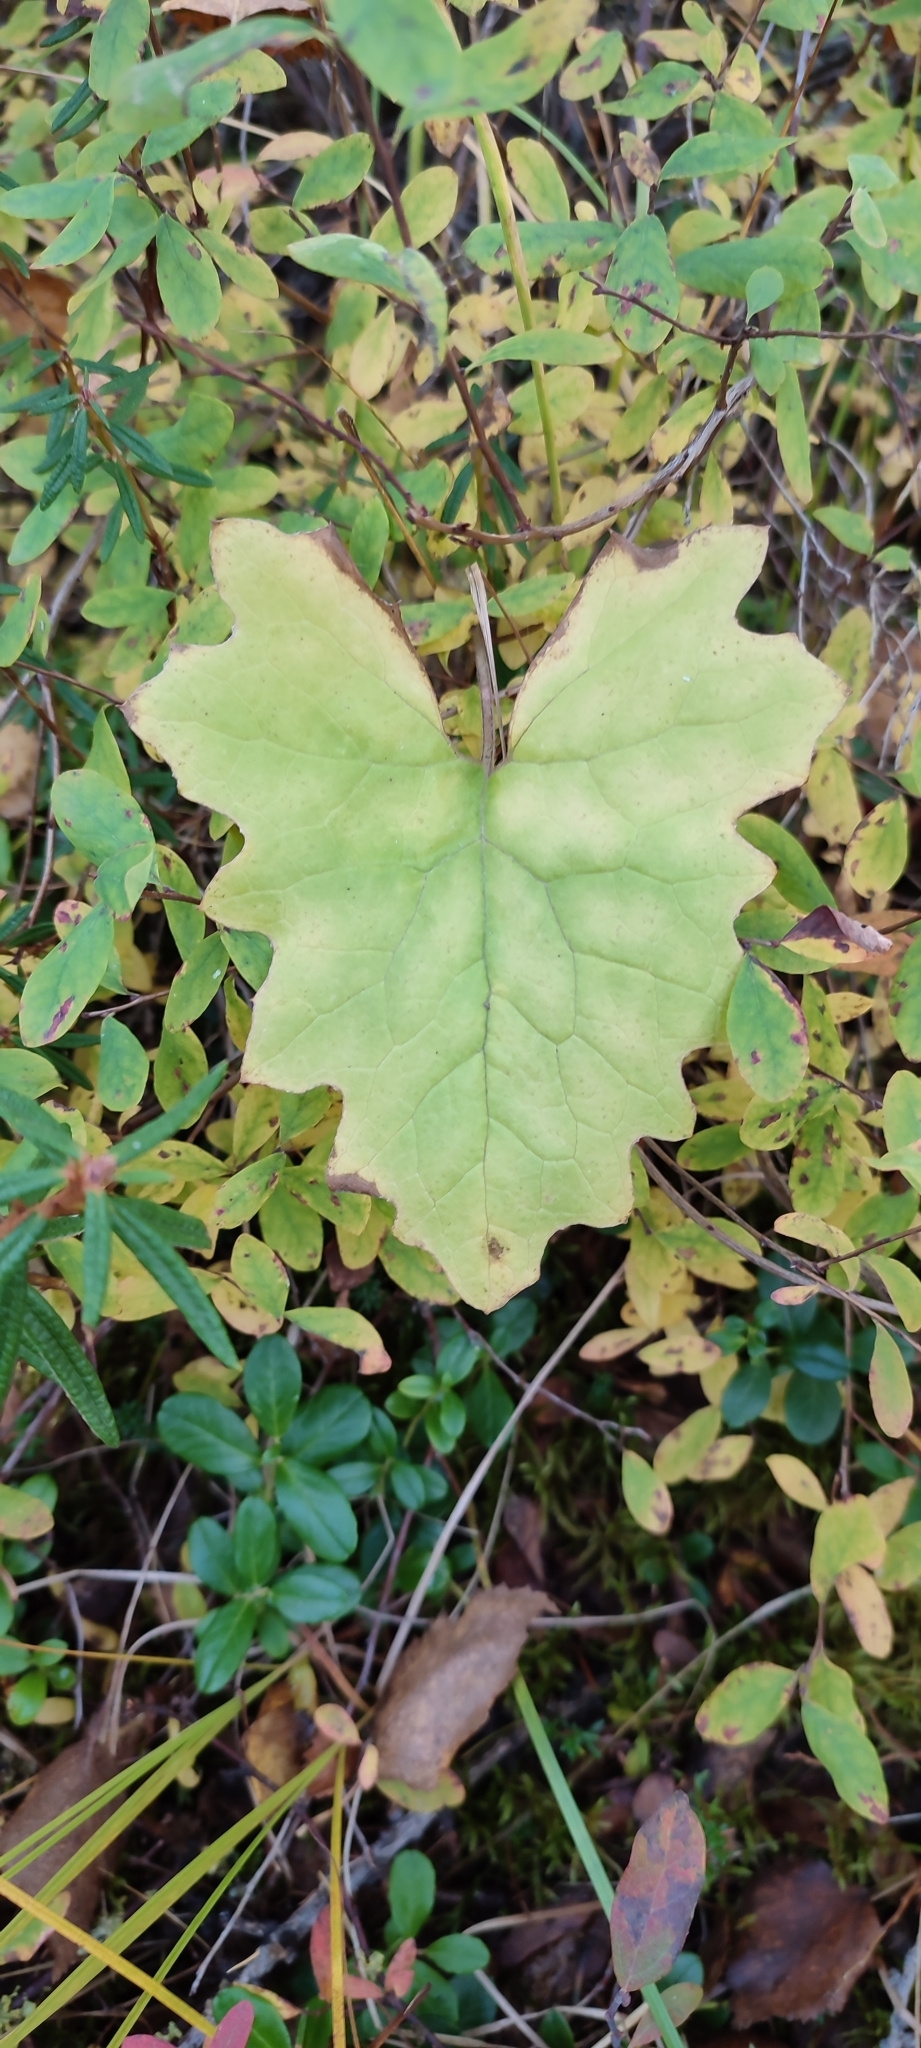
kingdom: Plantae
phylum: Tracheophyta
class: Magnoliopsida
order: Asterales
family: Asteraceae
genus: Petasites
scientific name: Petasites frigidus
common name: Arctic butterbur
